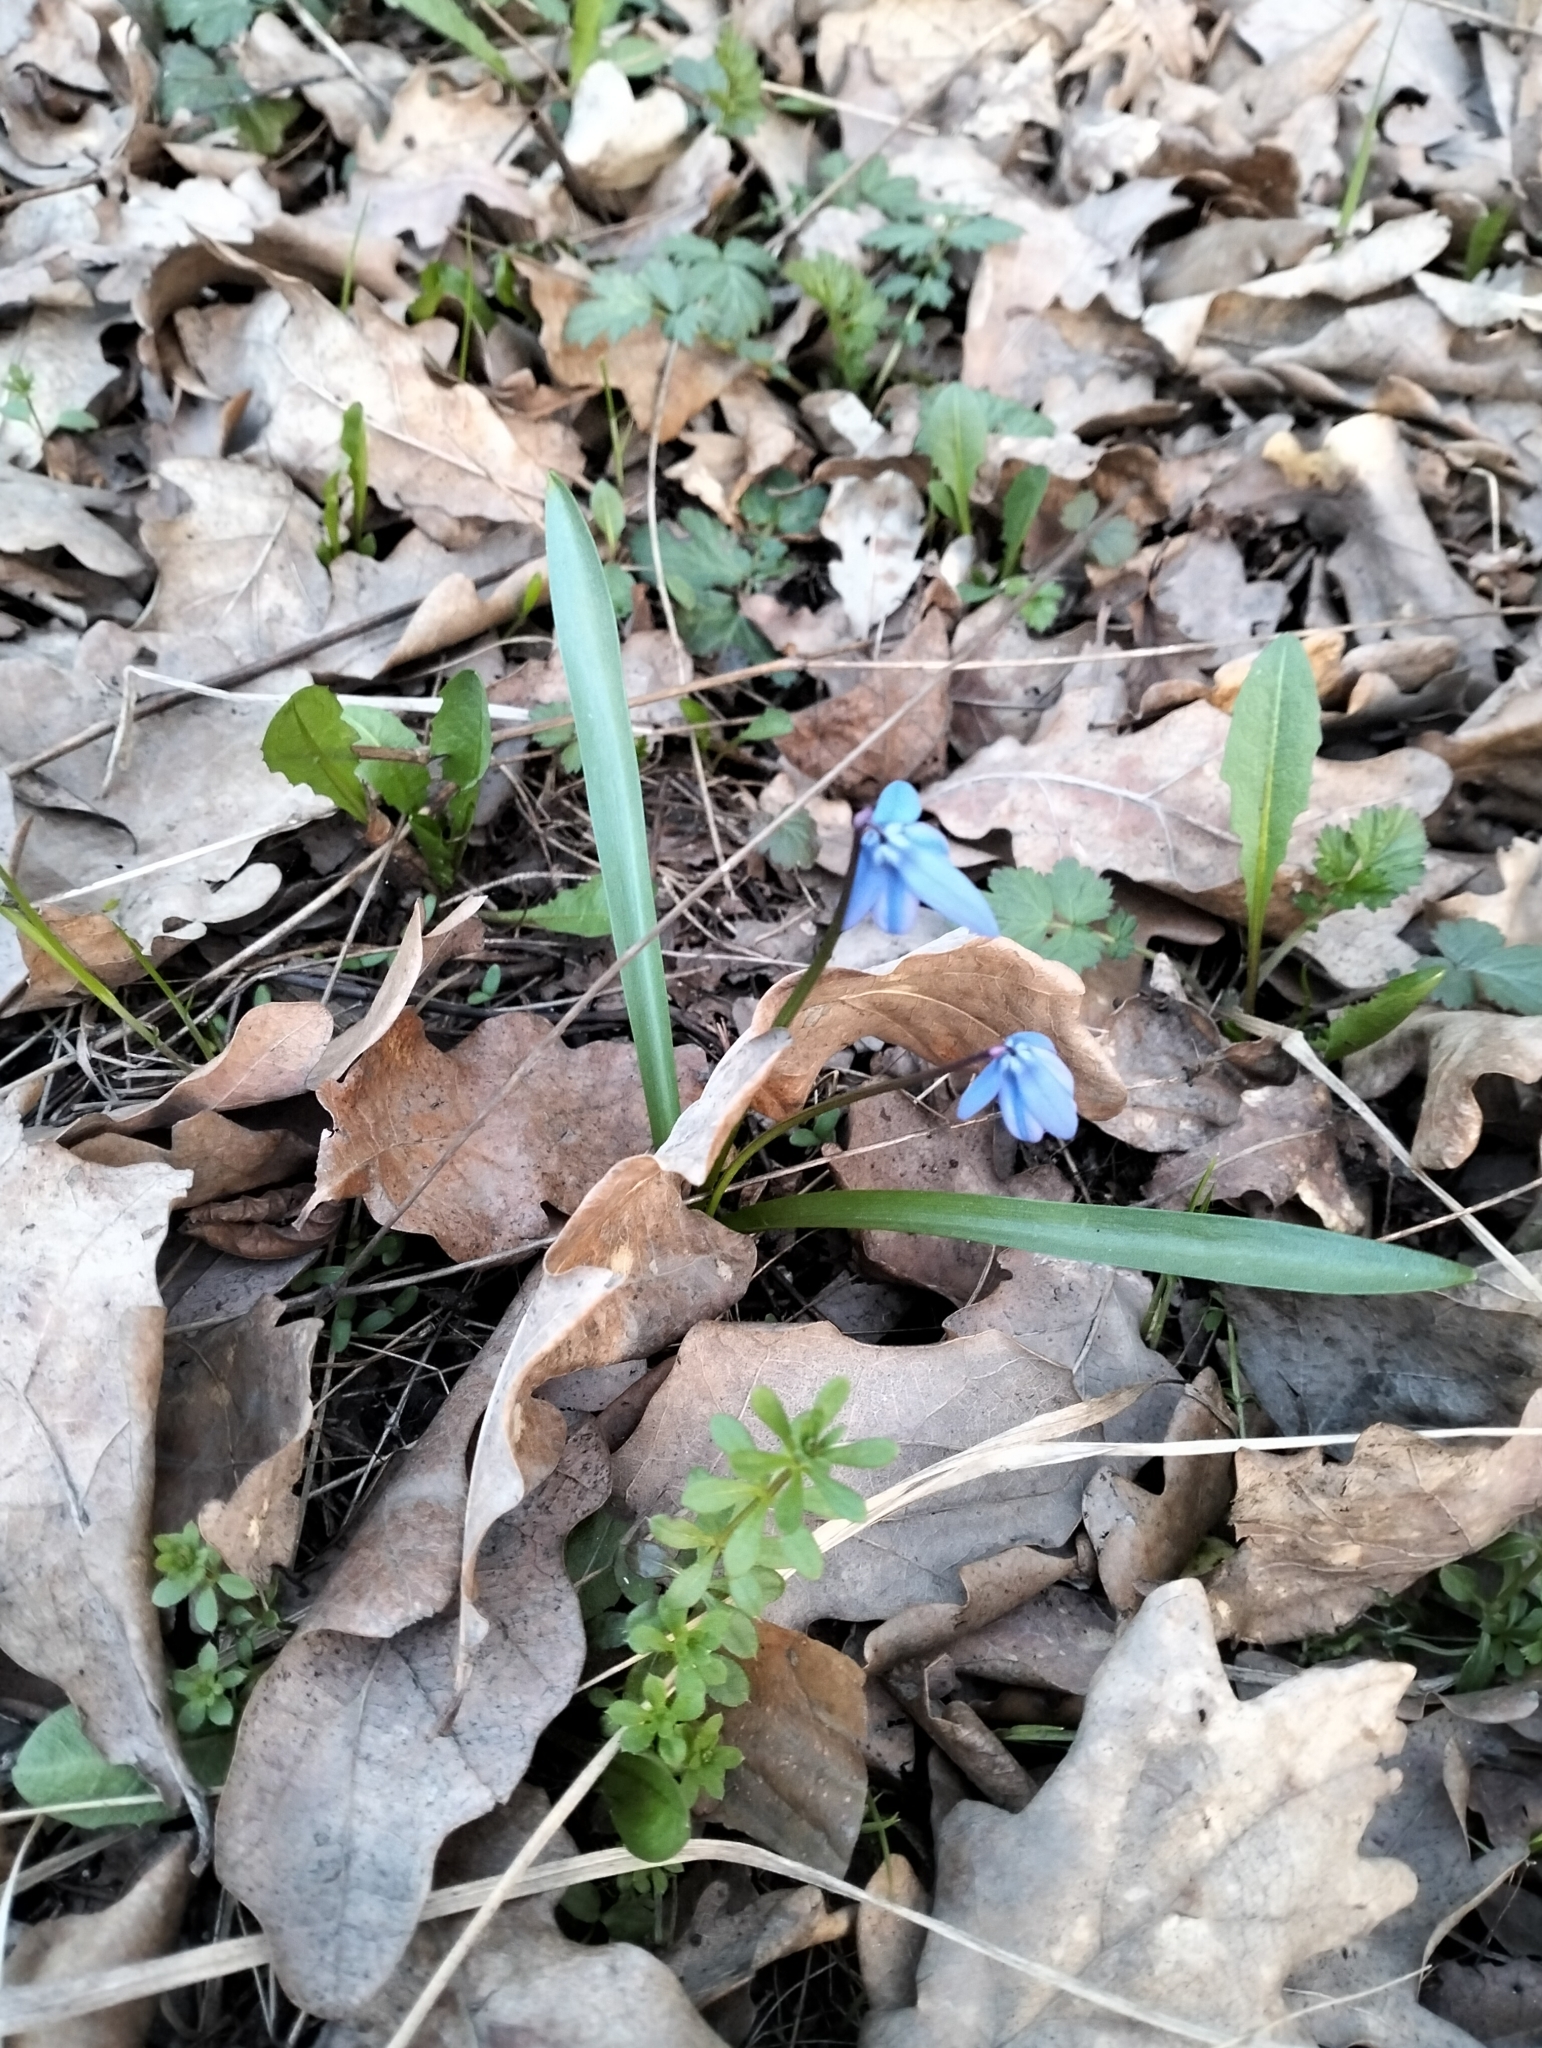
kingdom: Plantae
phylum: Tracheophyta
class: Liliopsida
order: Asparagales
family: Asparagaceae
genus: Scilla
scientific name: Scilla siberica
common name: Siberian squill
